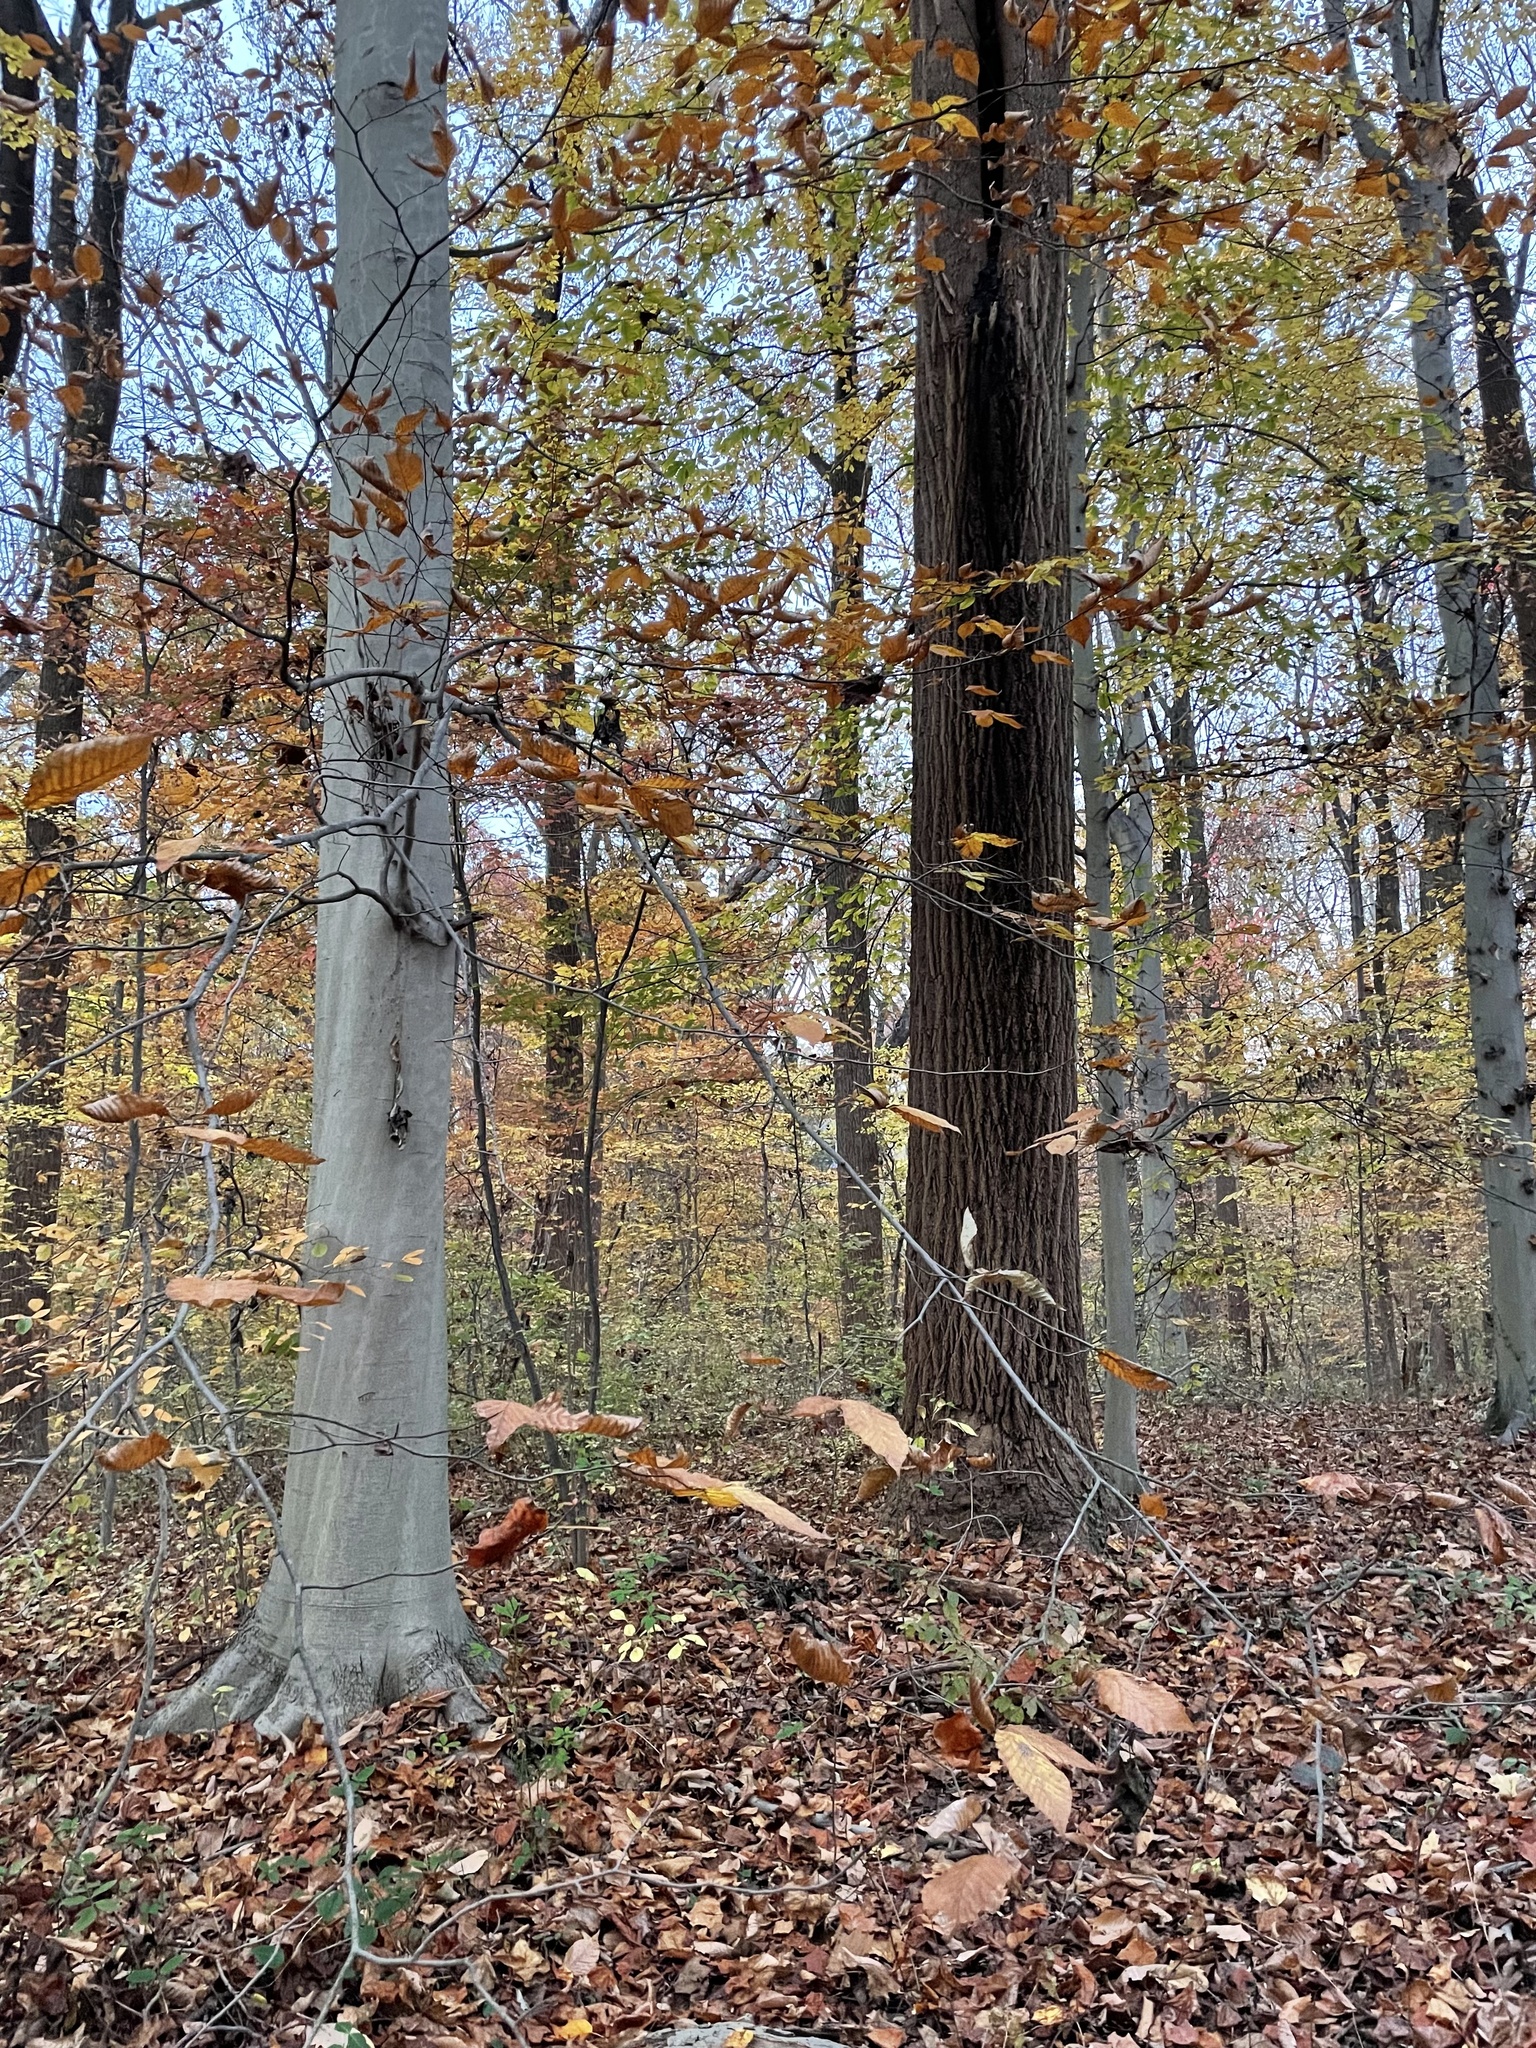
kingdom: Plantae
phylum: Tracheophyta
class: Magnoliopsida
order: Fagales
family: Fagaceae
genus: Fagus
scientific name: Fagus grandifolia
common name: American beech
